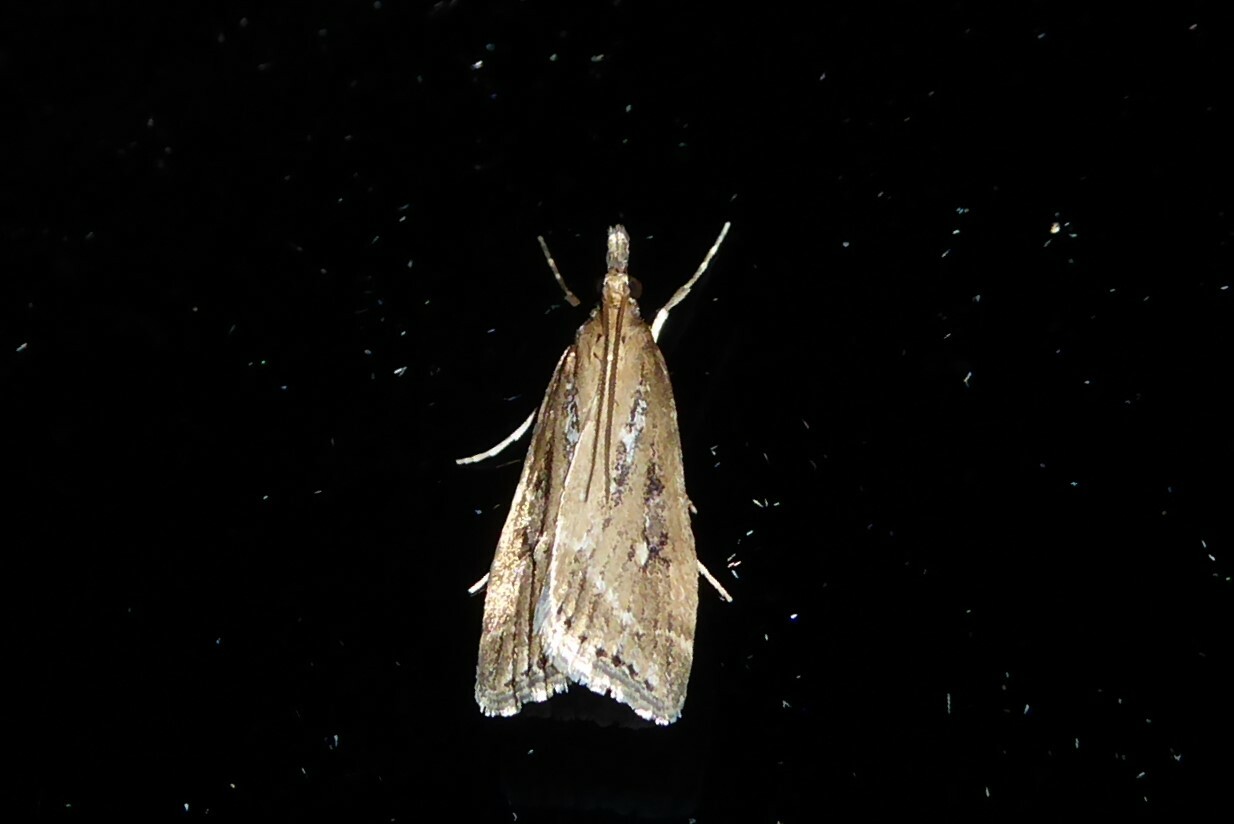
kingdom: Animalia
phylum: Arthropoda
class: Insecta
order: Lepidoptera
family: Crambidae
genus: Eudonia
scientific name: Eudonia octophora
